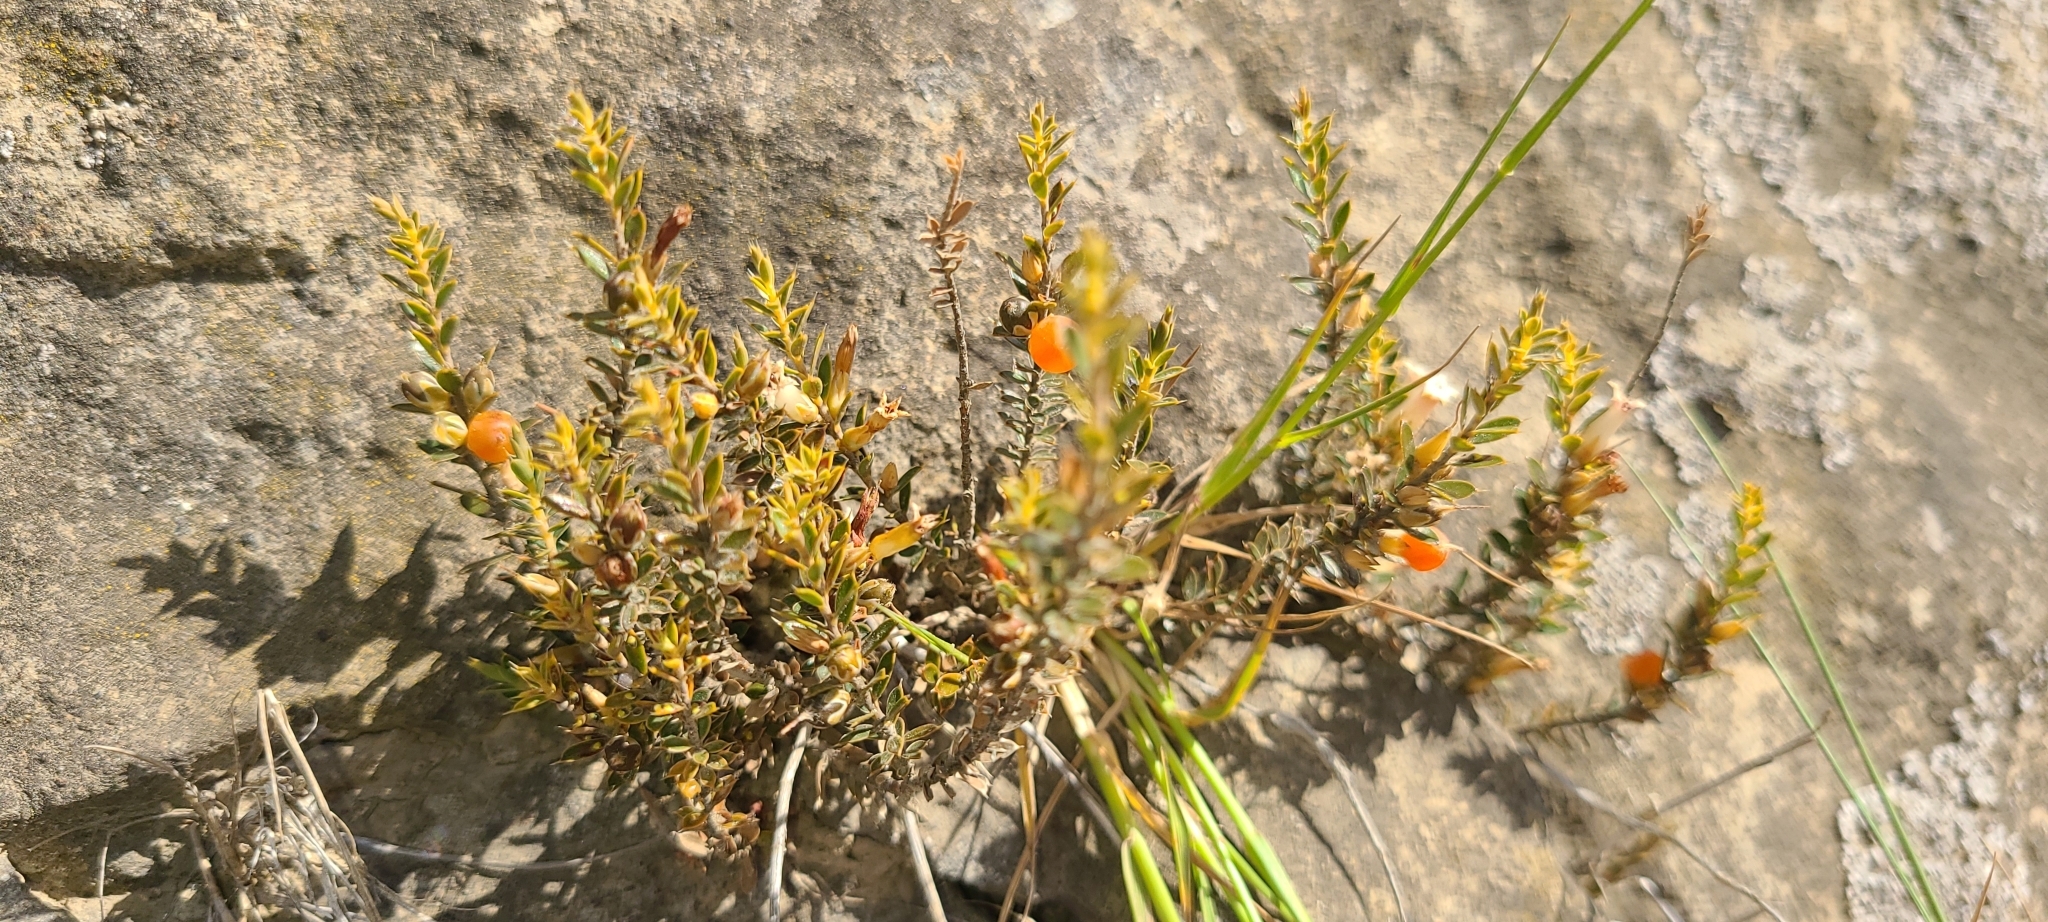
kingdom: Plantae
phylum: Tracheophyta
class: Magnoliopsida
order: Ericales
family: Ericaceae
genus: Styphelia
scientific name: Styphelia nesophila
